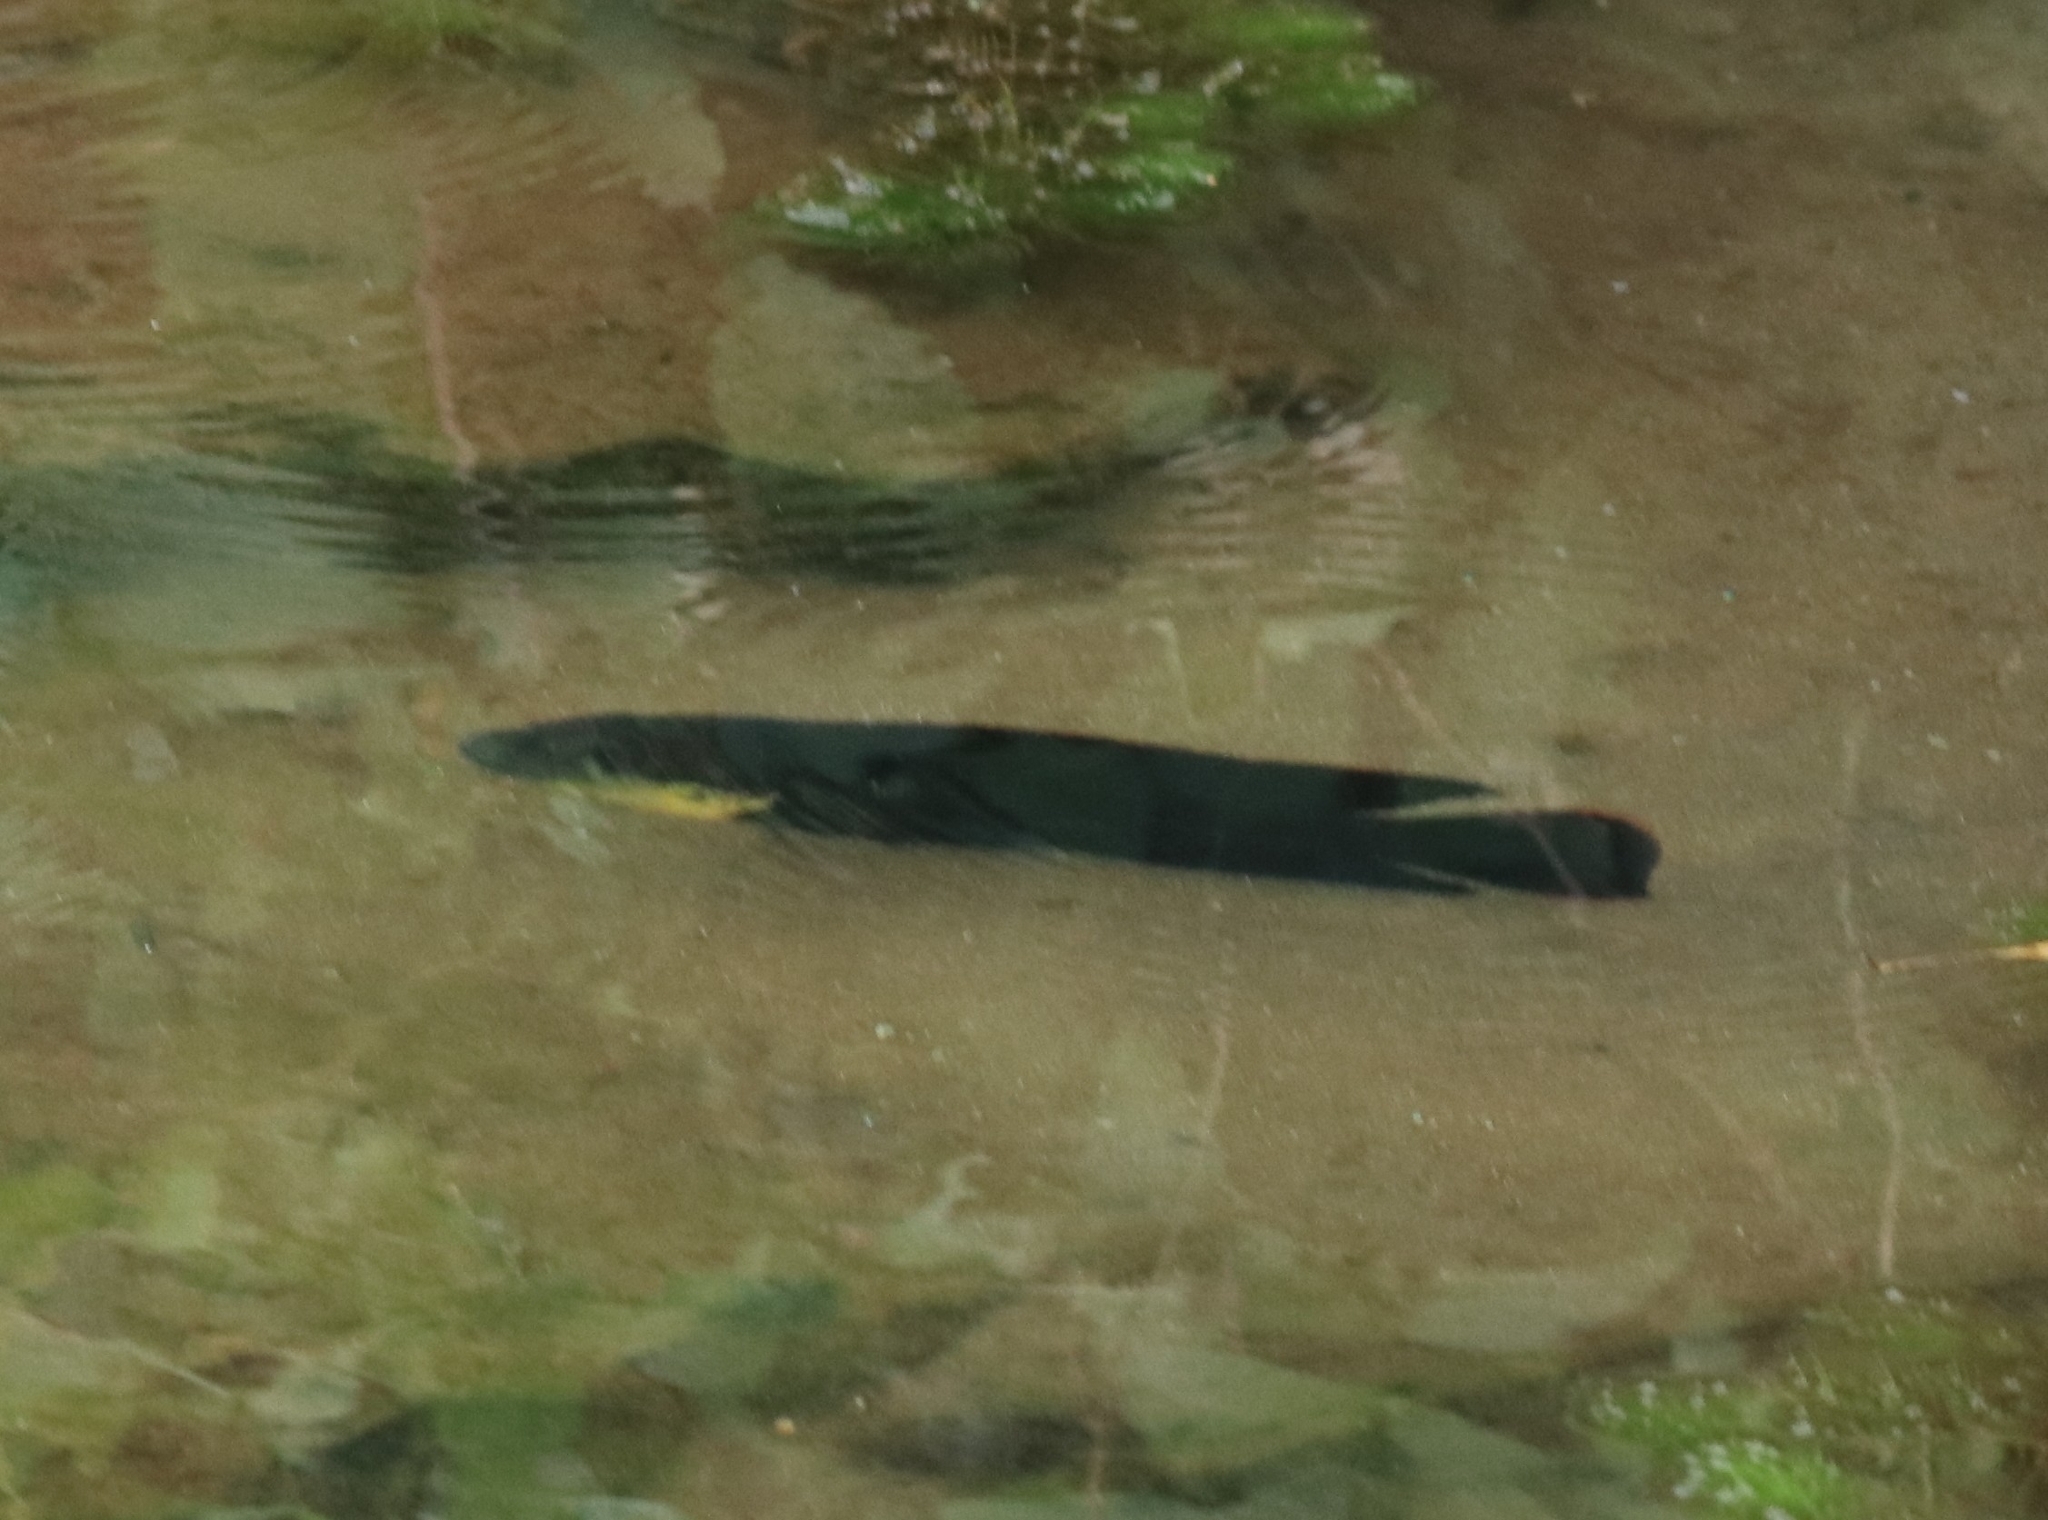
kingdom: Animalia
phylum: Chordata
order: Perciformes
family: Cichlidae
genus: Oreochromis
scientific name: Oreochromis mossambicus
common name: Mozambique tilapia
